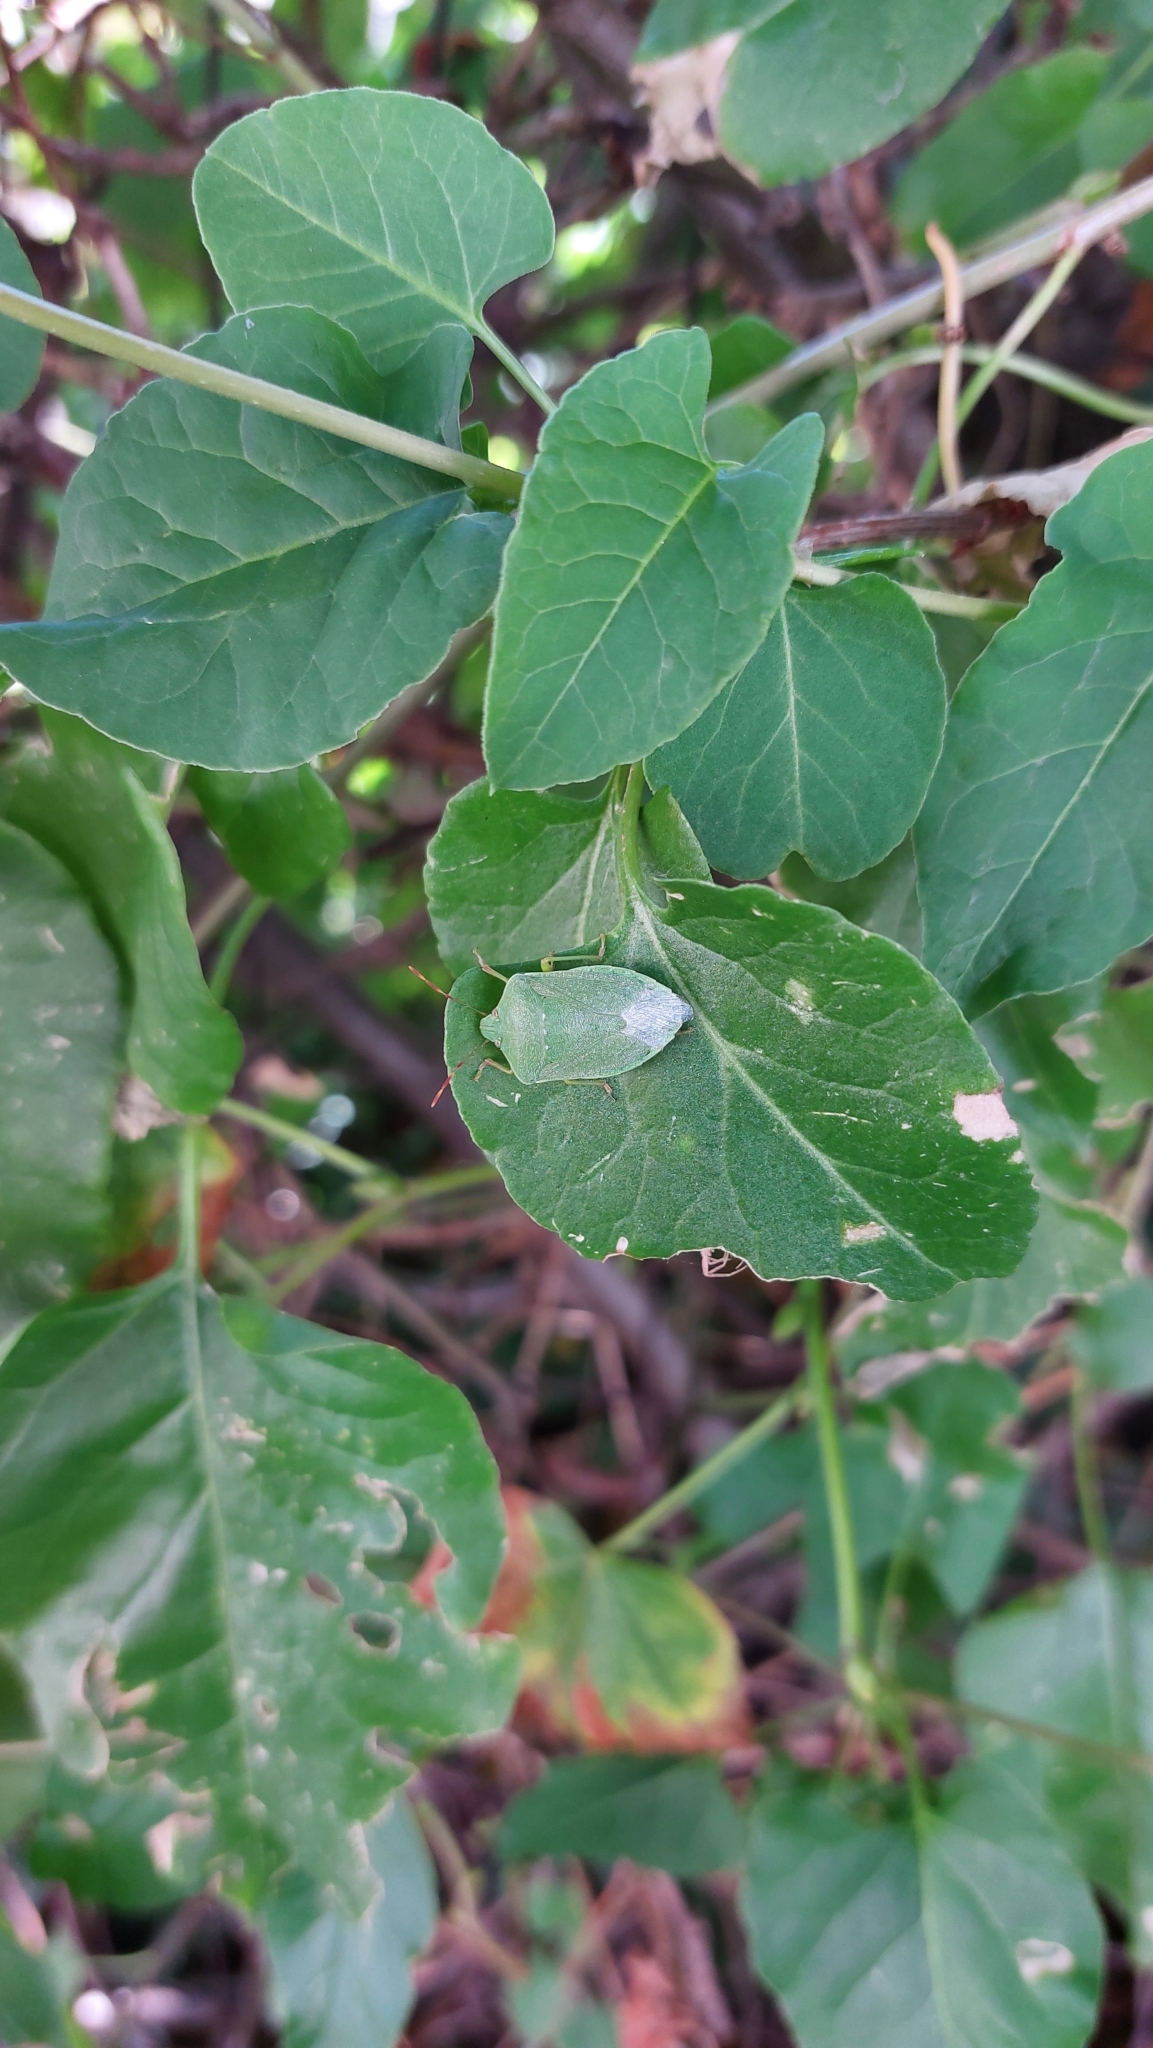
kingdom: Animalia
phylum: Arthropoda
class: Insecta
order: Hemiptera
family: Pentatomidae
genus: Nezara
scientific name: Nezara viridula
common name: Southern green stink bug
